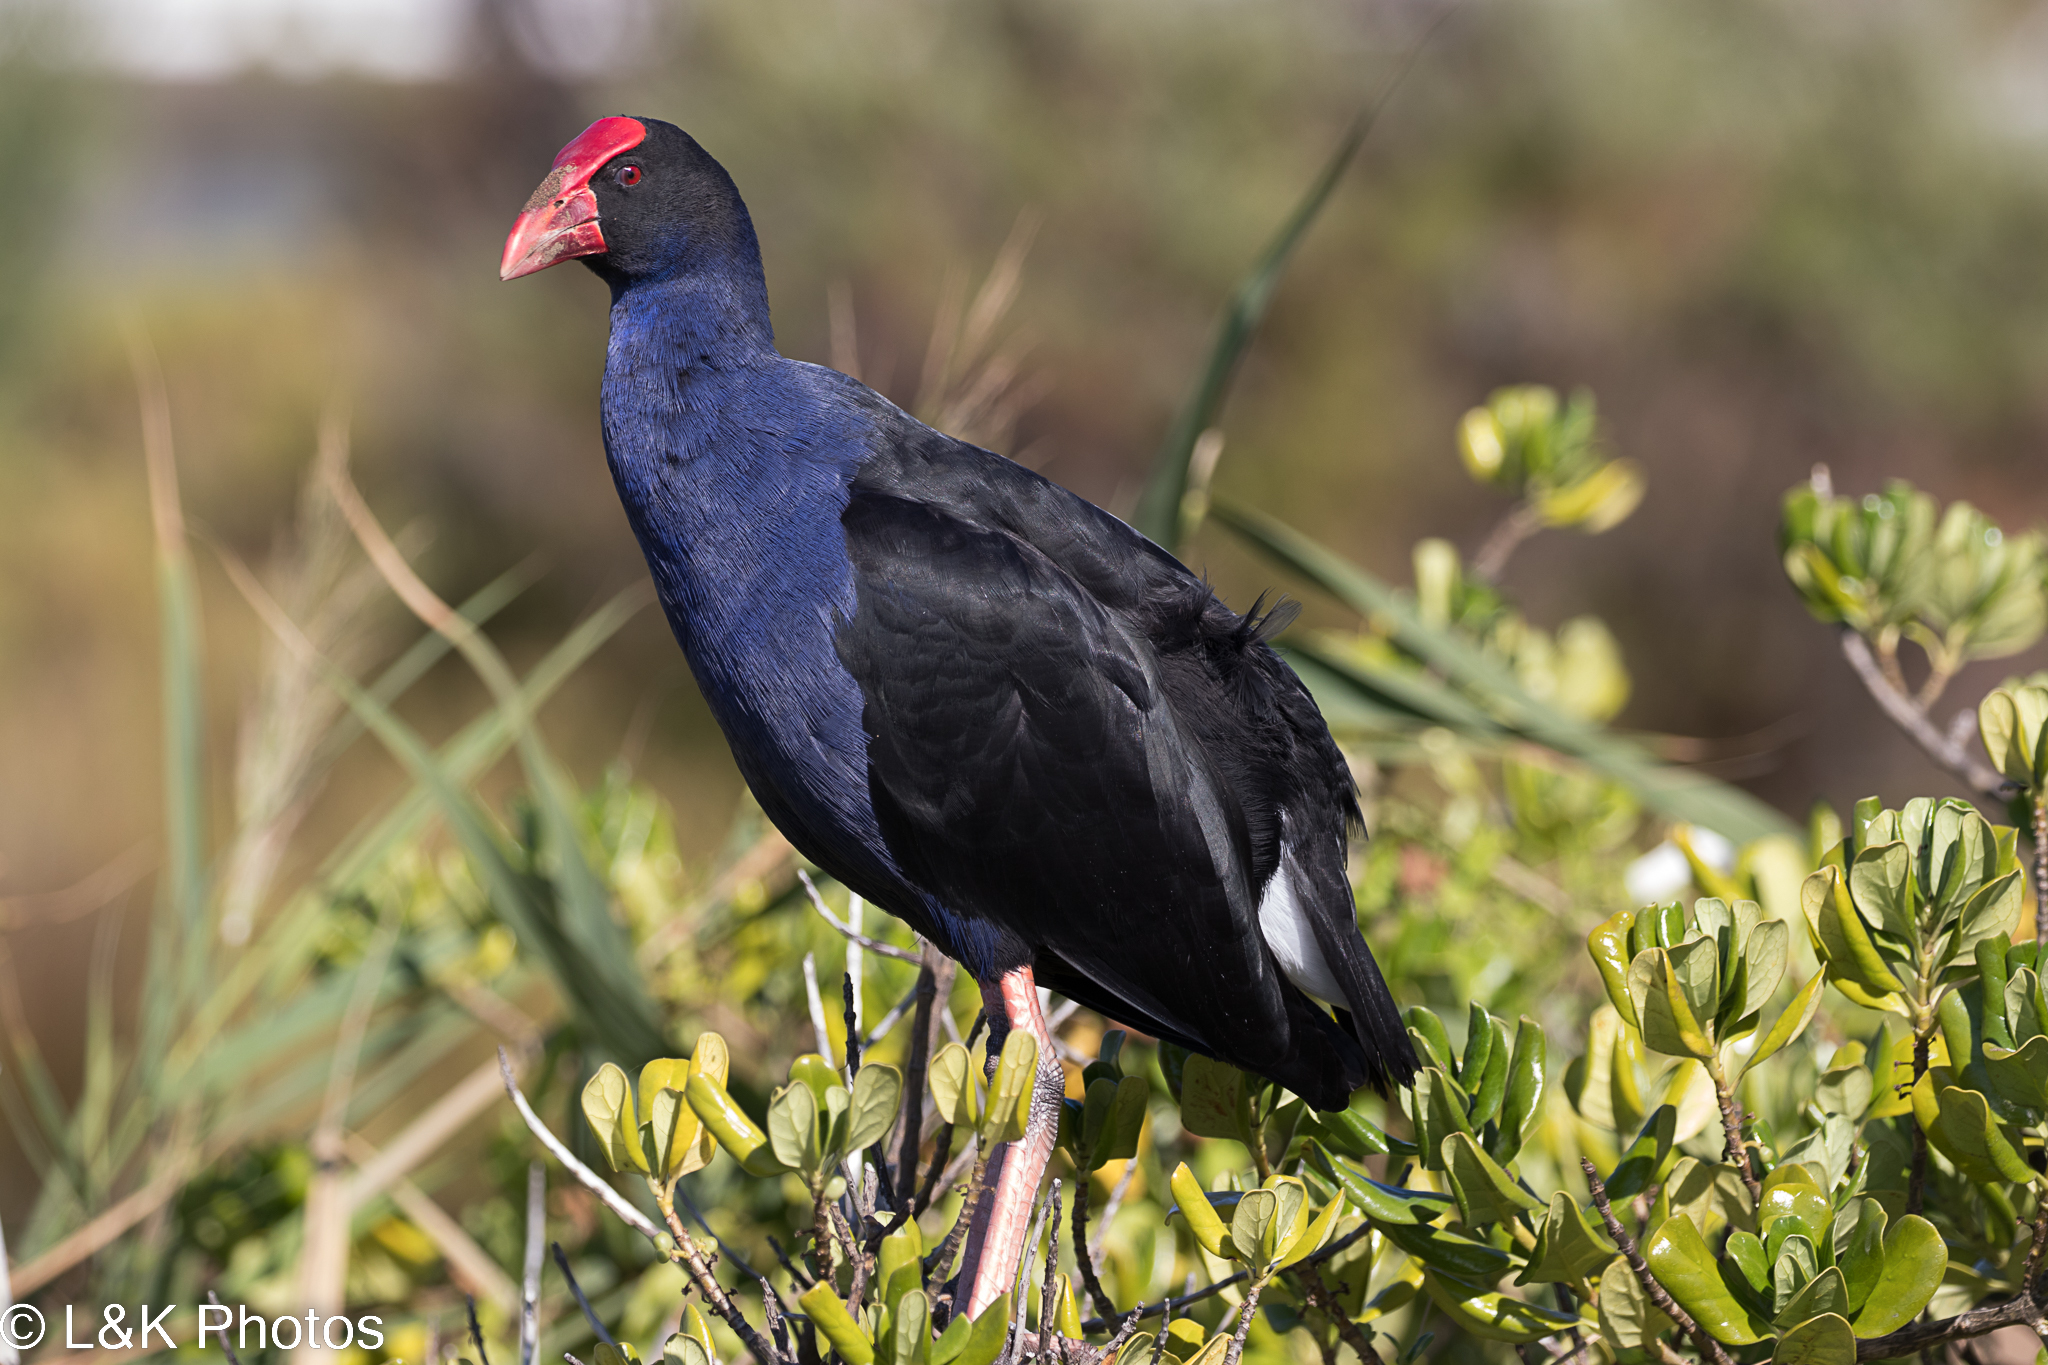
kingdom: Animalia
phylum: Chordata
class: Aves
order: Gruiformes
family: Rallidae
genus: Porphyrio
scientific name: Porphyrio melanotus
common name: Australasian swamphen
